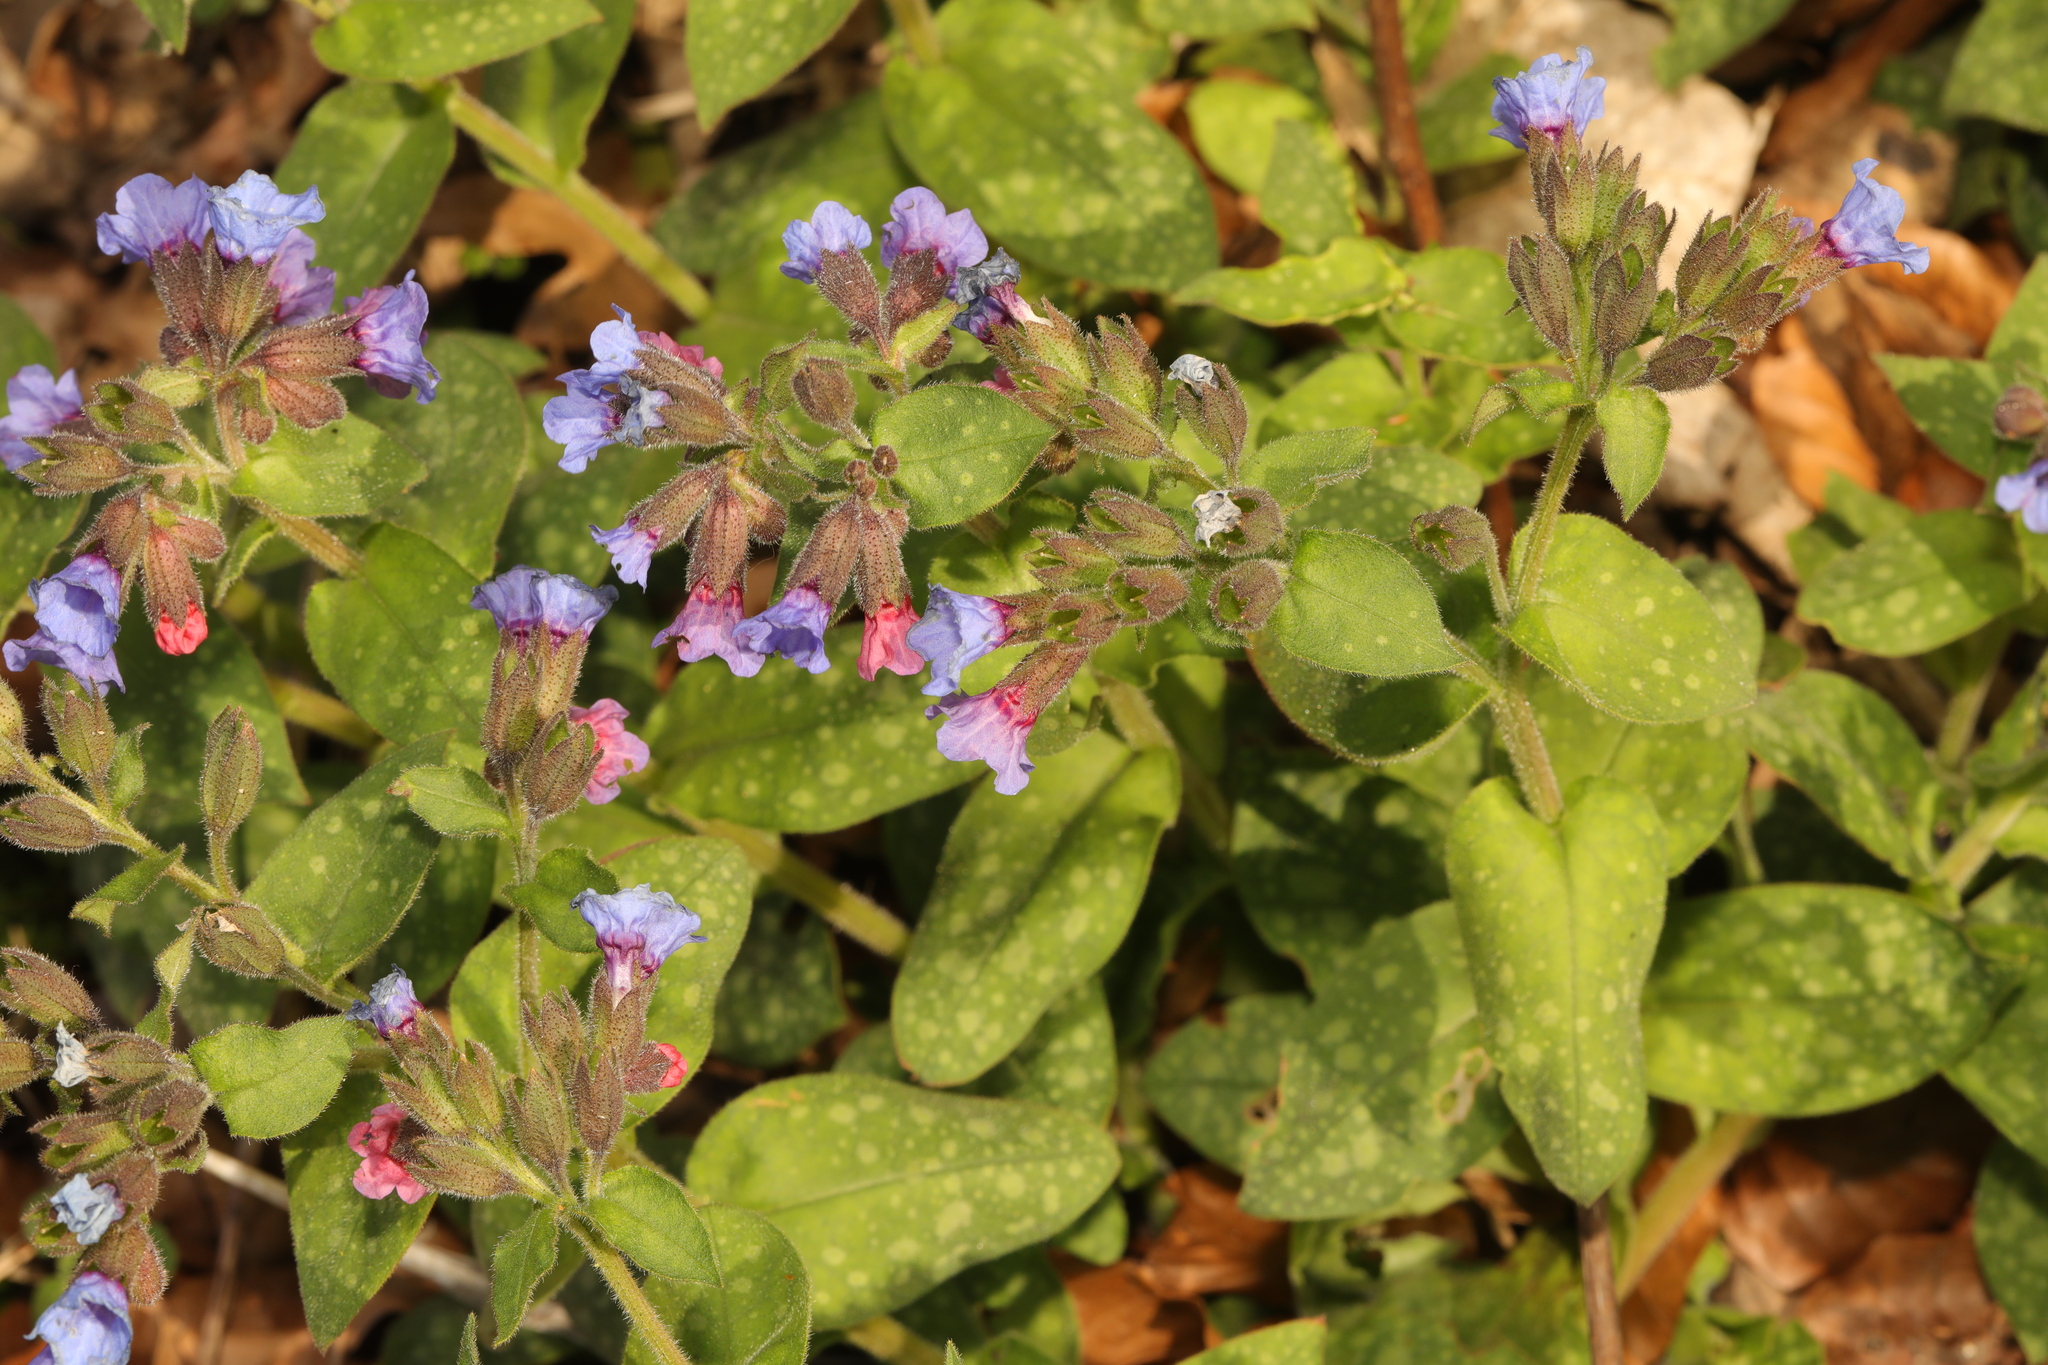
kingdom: Plantae
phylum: Tracheophyta
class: Magnoliopsida
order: Boraginales
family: Boraginaceae
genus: Pulmonaria
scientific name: Pulmonaria officinalis
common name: Lungwort
